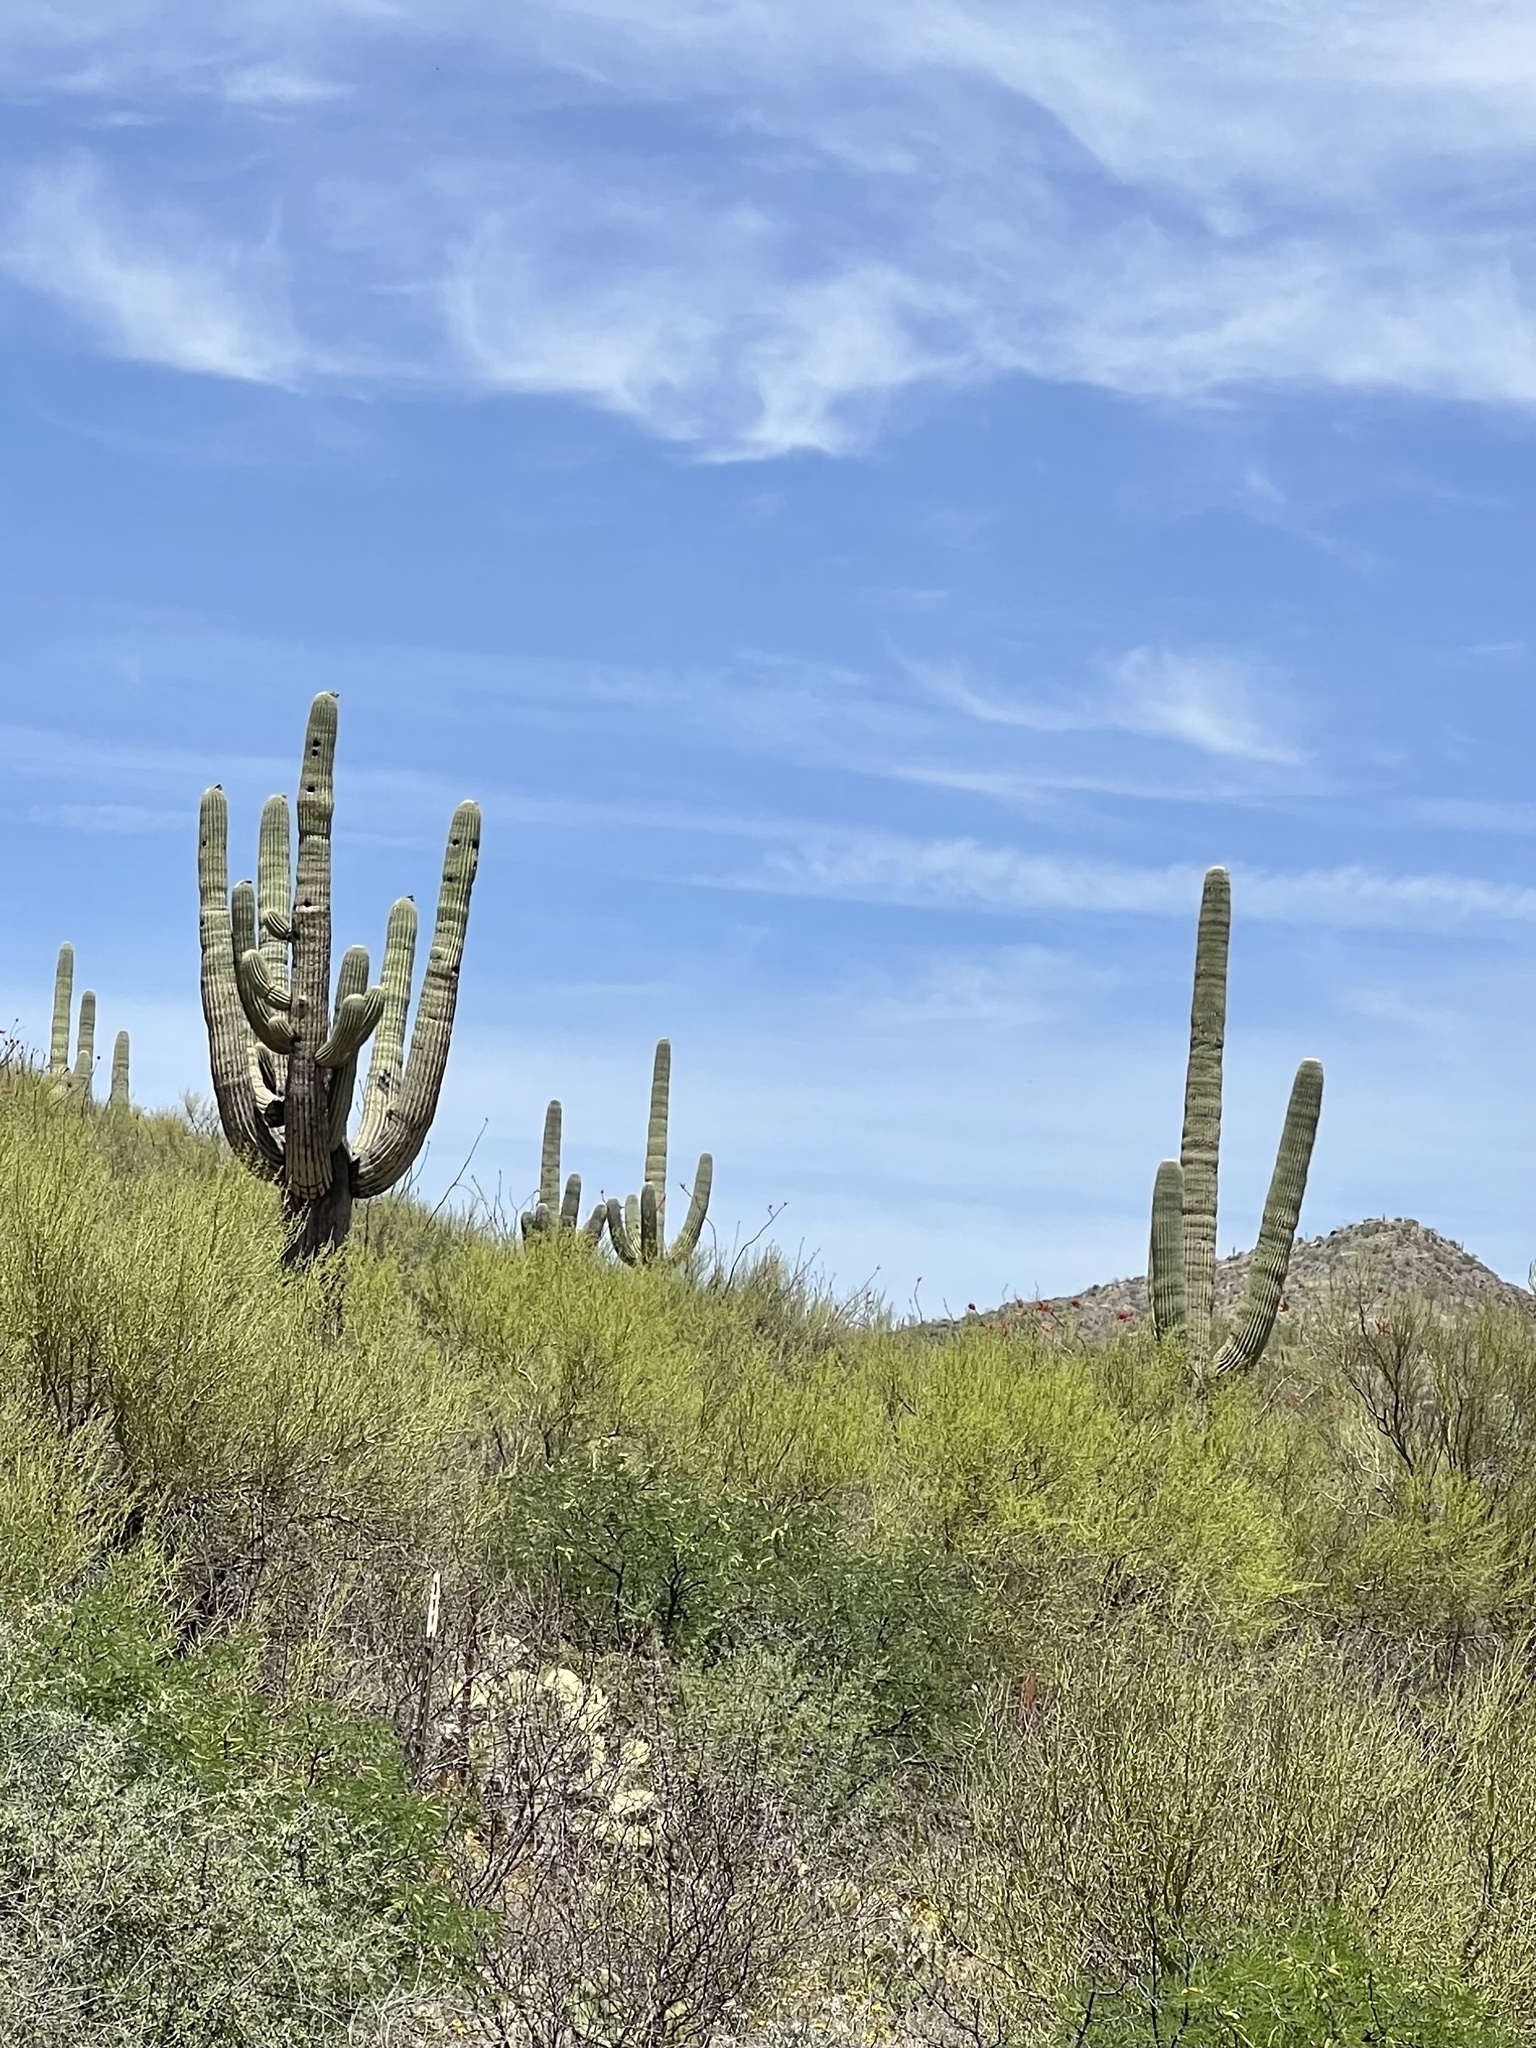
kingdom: Plantae
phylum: Tracheophyta
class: Magnoliopsida
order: Caryophyllales
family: Cactaceae
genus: Carnegiea
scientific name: Carnegiea gigantea
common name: Saguaro
